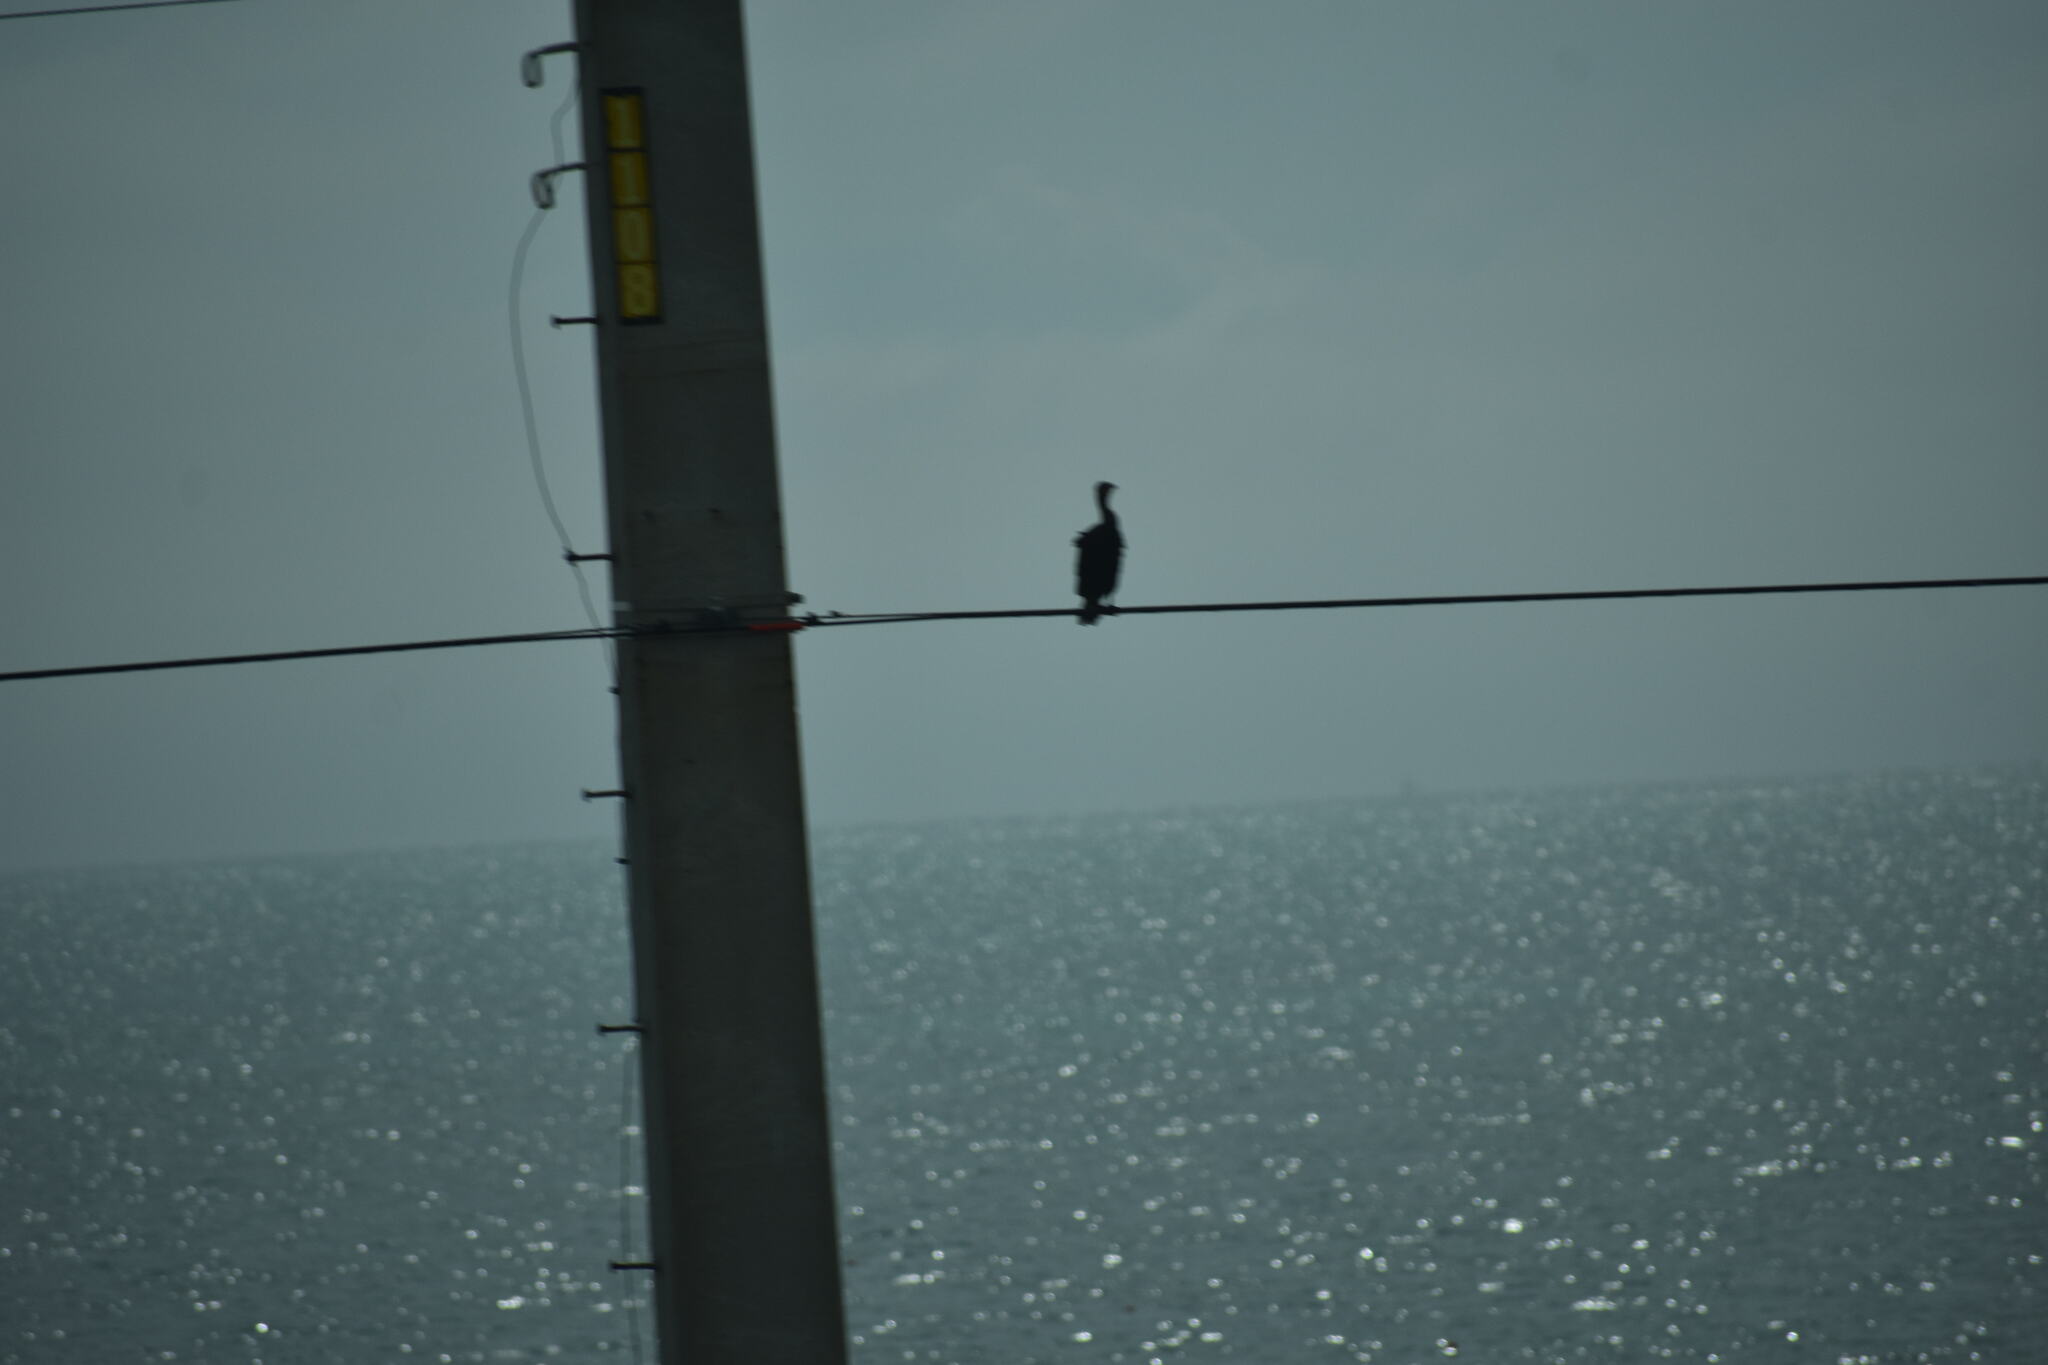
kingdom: Animalia
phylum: Chordata
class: Aves
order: Suliformes
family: Phalacrocoracidae
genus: Phalacrocorax
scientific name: Phalacrocorax auritus
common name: Double-crested cormorant
